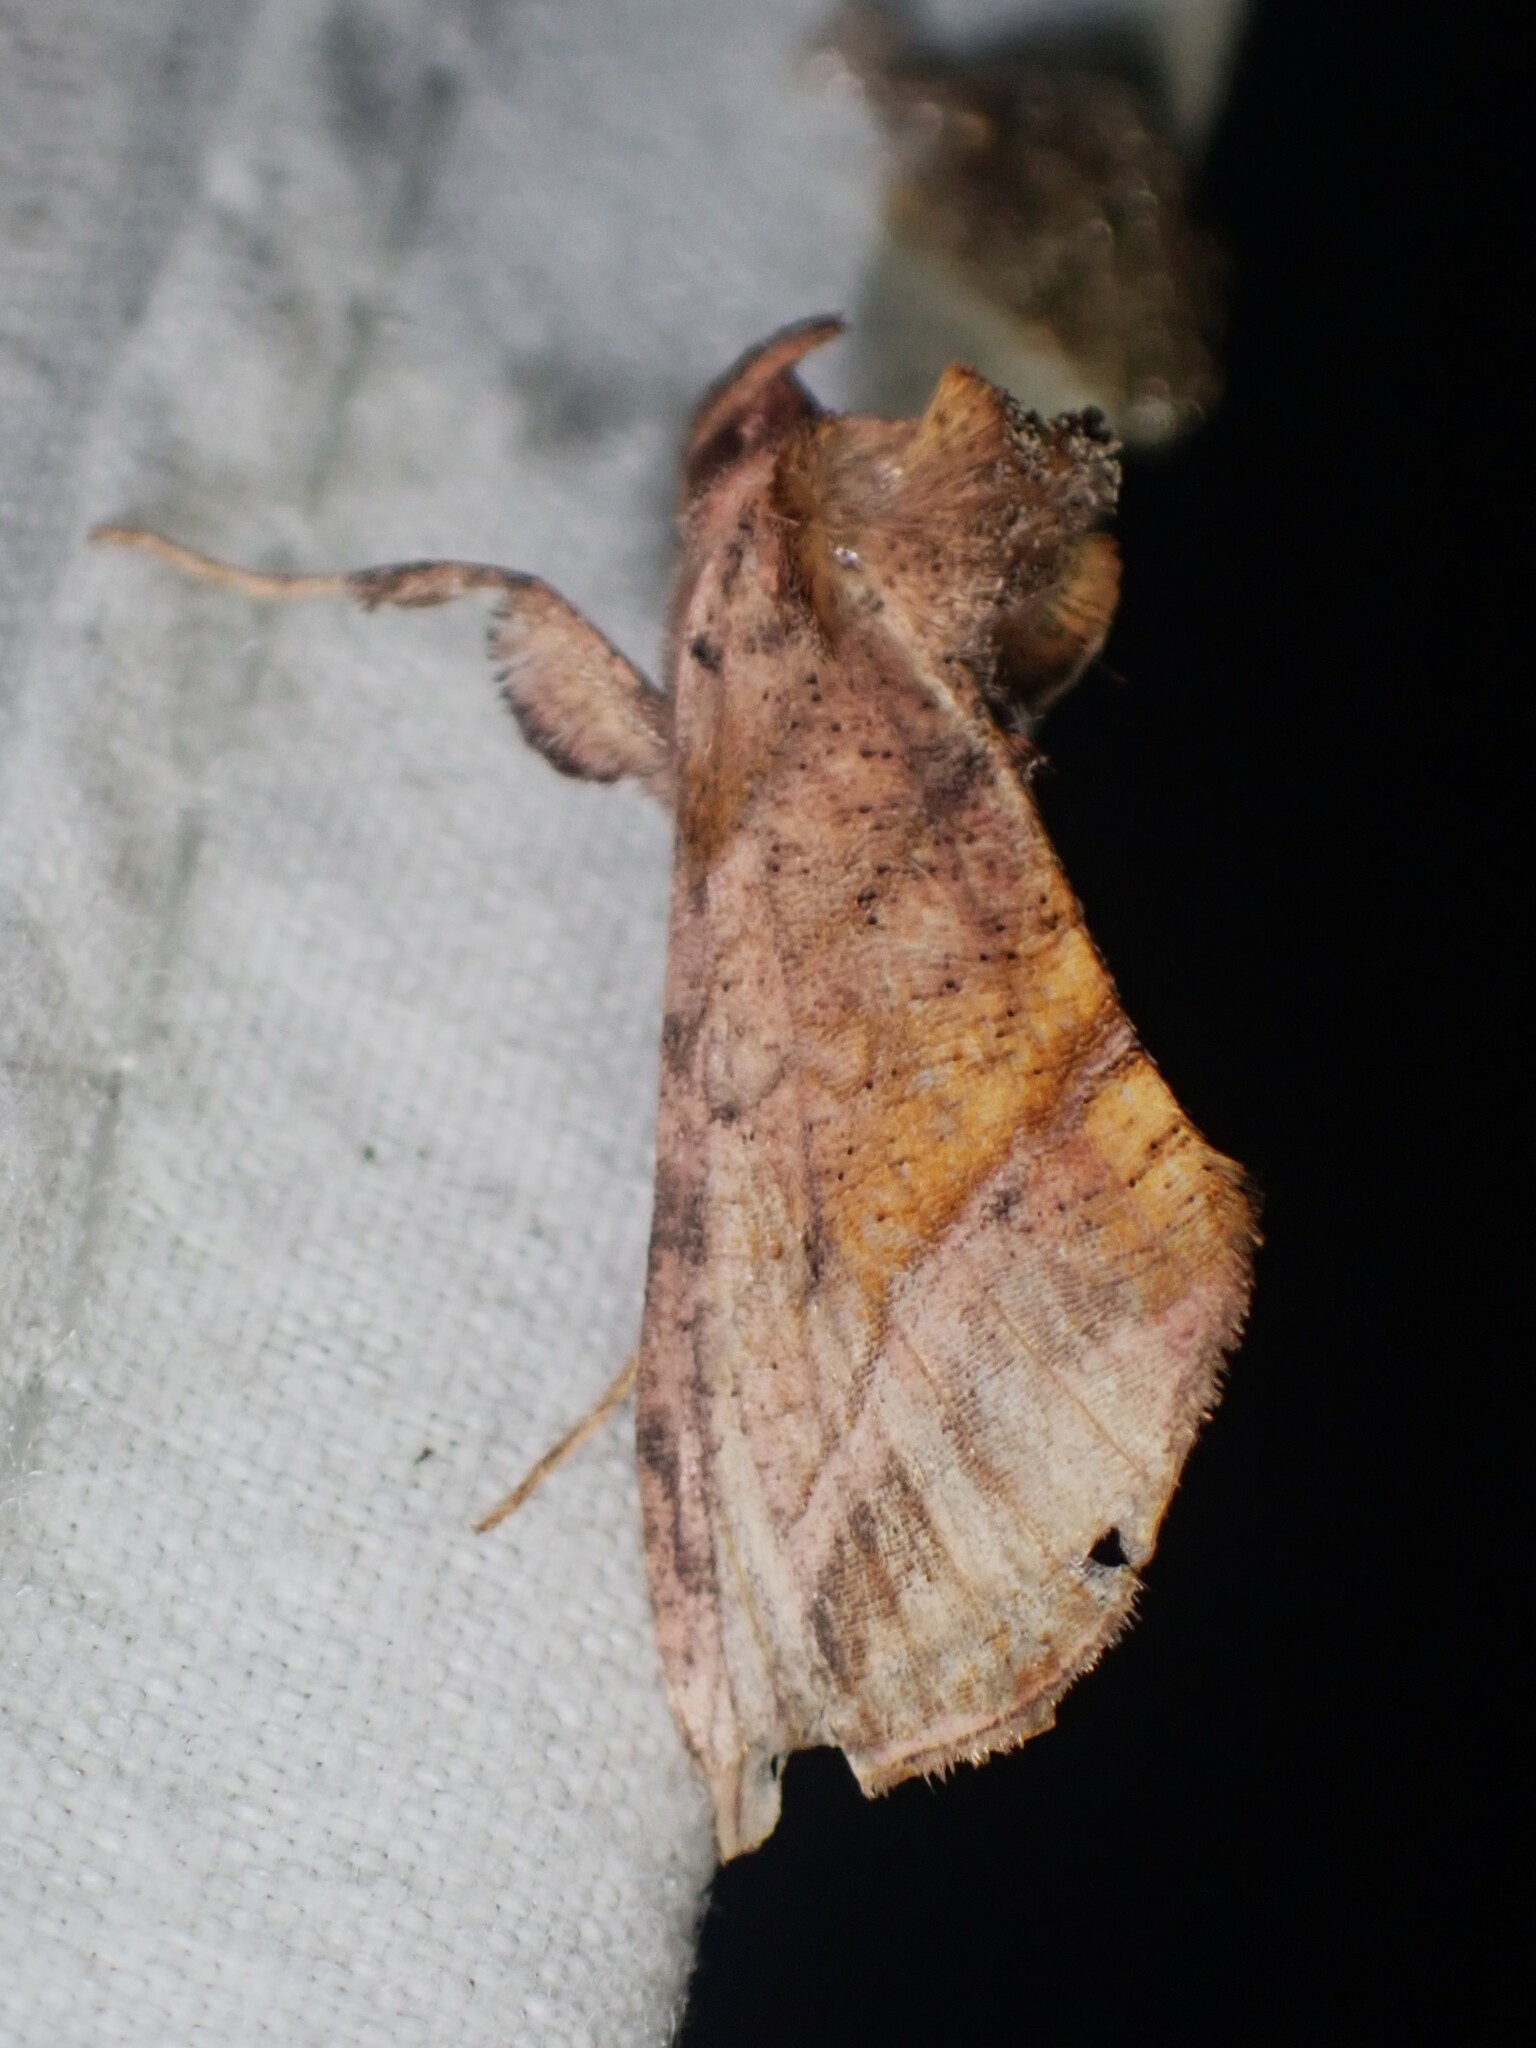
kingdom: Animalia
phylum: Arthropoda
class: Insecta
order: Lepidoptera
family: Noctuidae
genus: Pseudeva
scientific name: Pseudeva purpurigera
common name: Straight-lined looper moth
